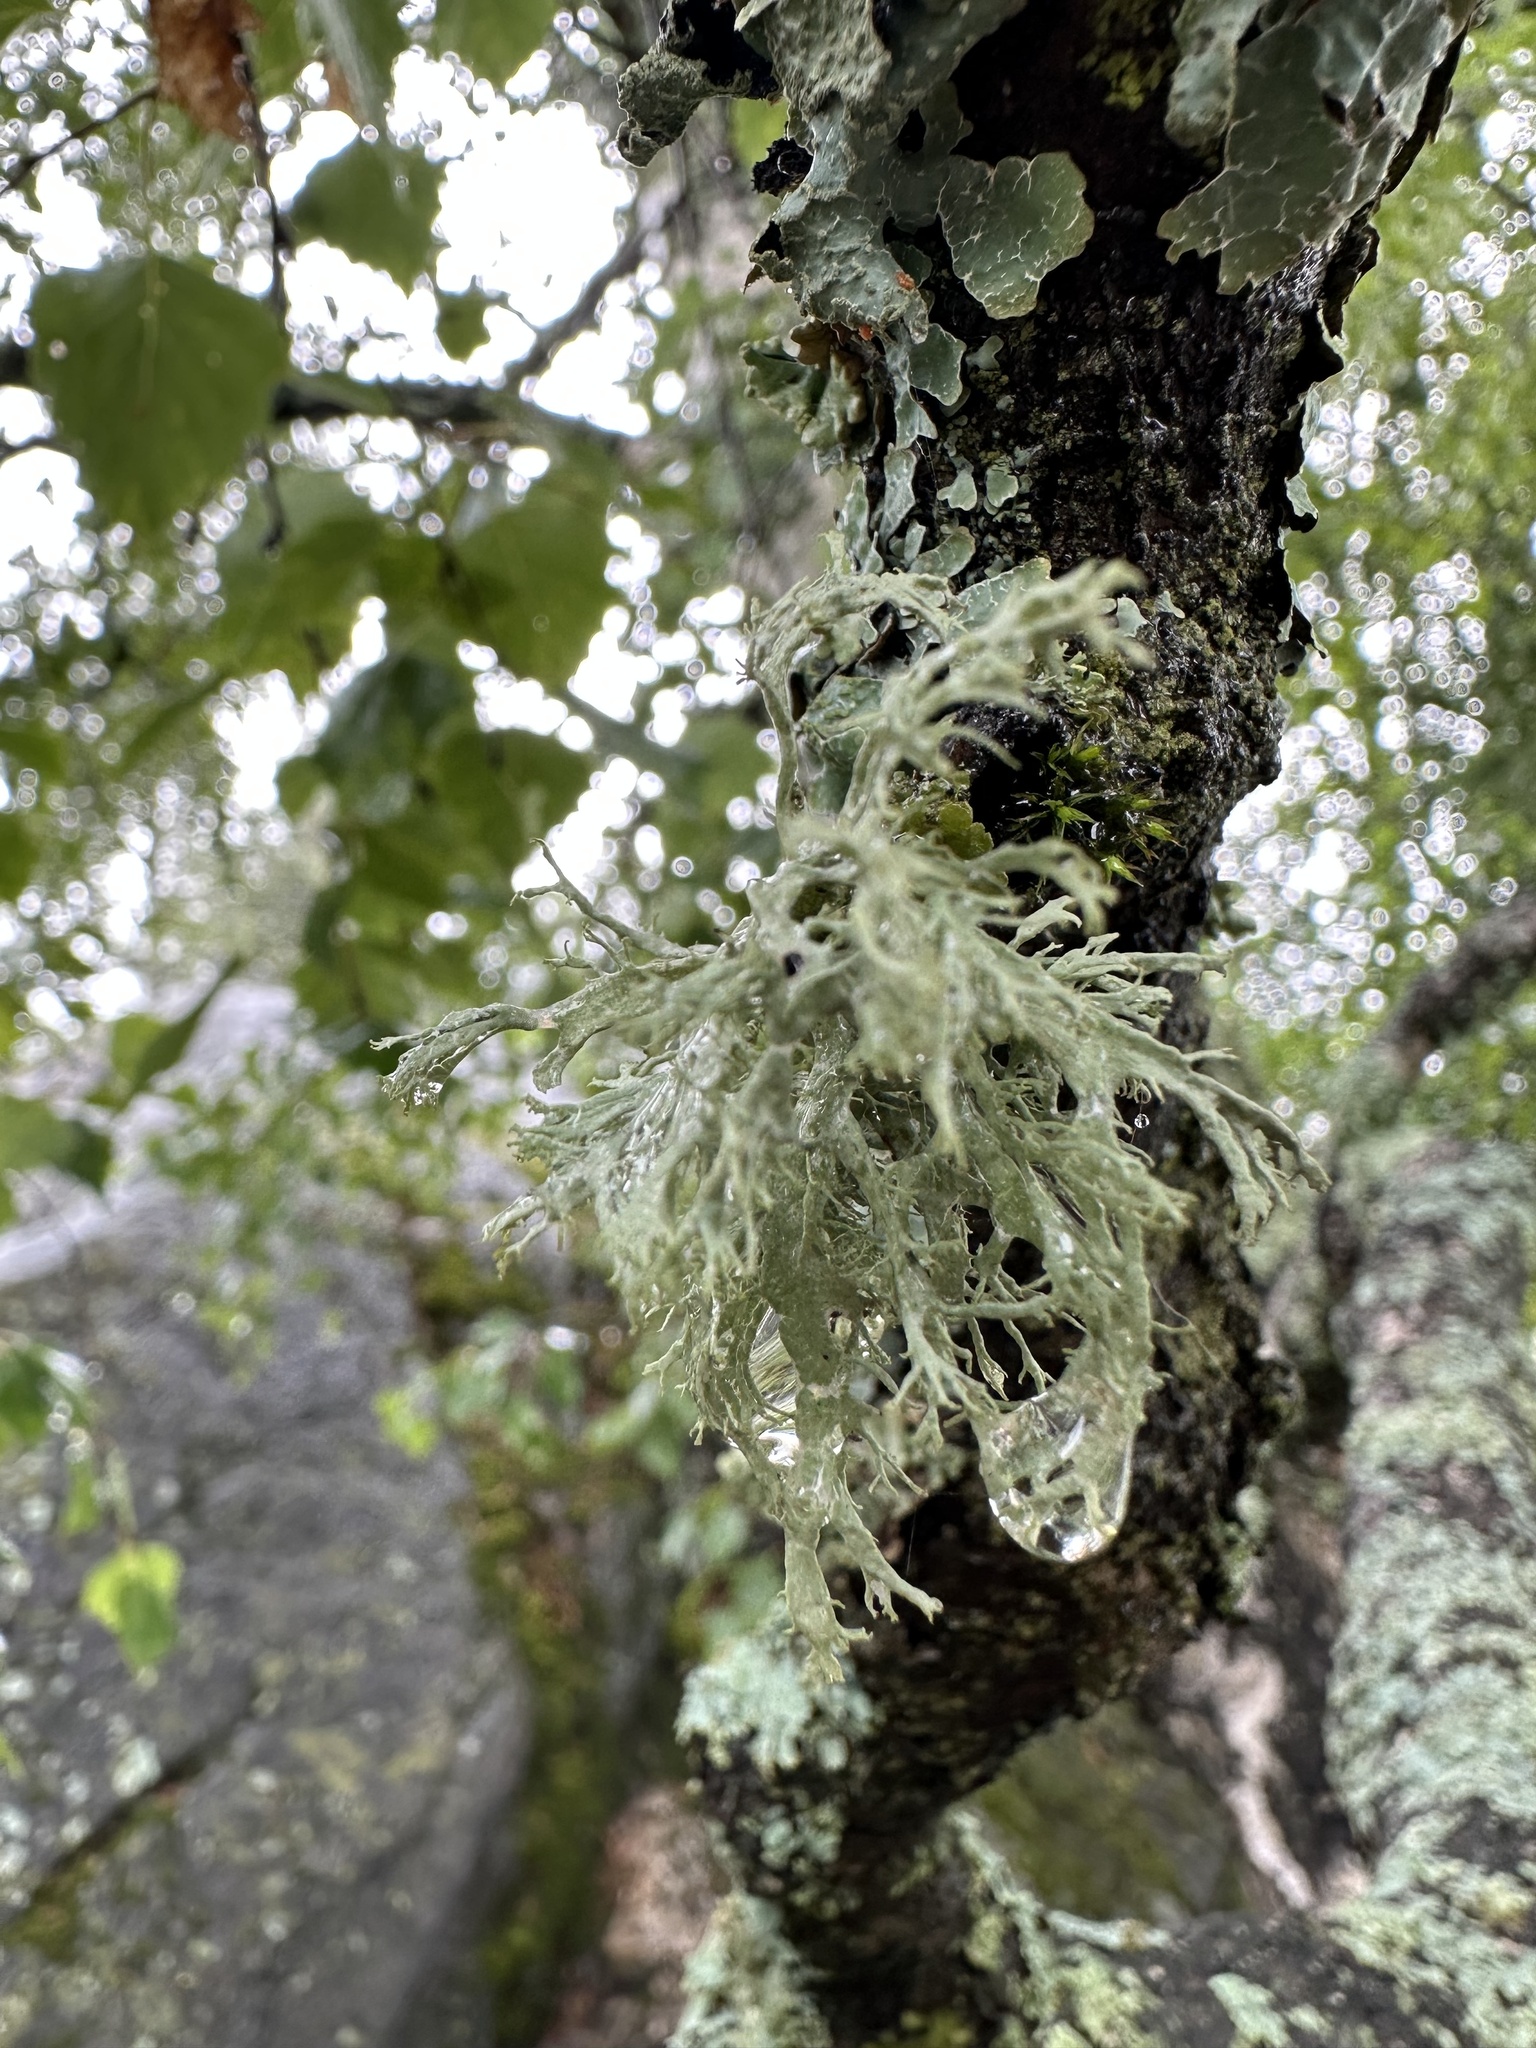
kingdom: Fungi
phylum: Ascomycota
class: Lecanoromycetes
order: Lecanorales
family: Parmeliaceae
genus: Evernia
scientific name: Evernia prunastri
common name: Oak moss
